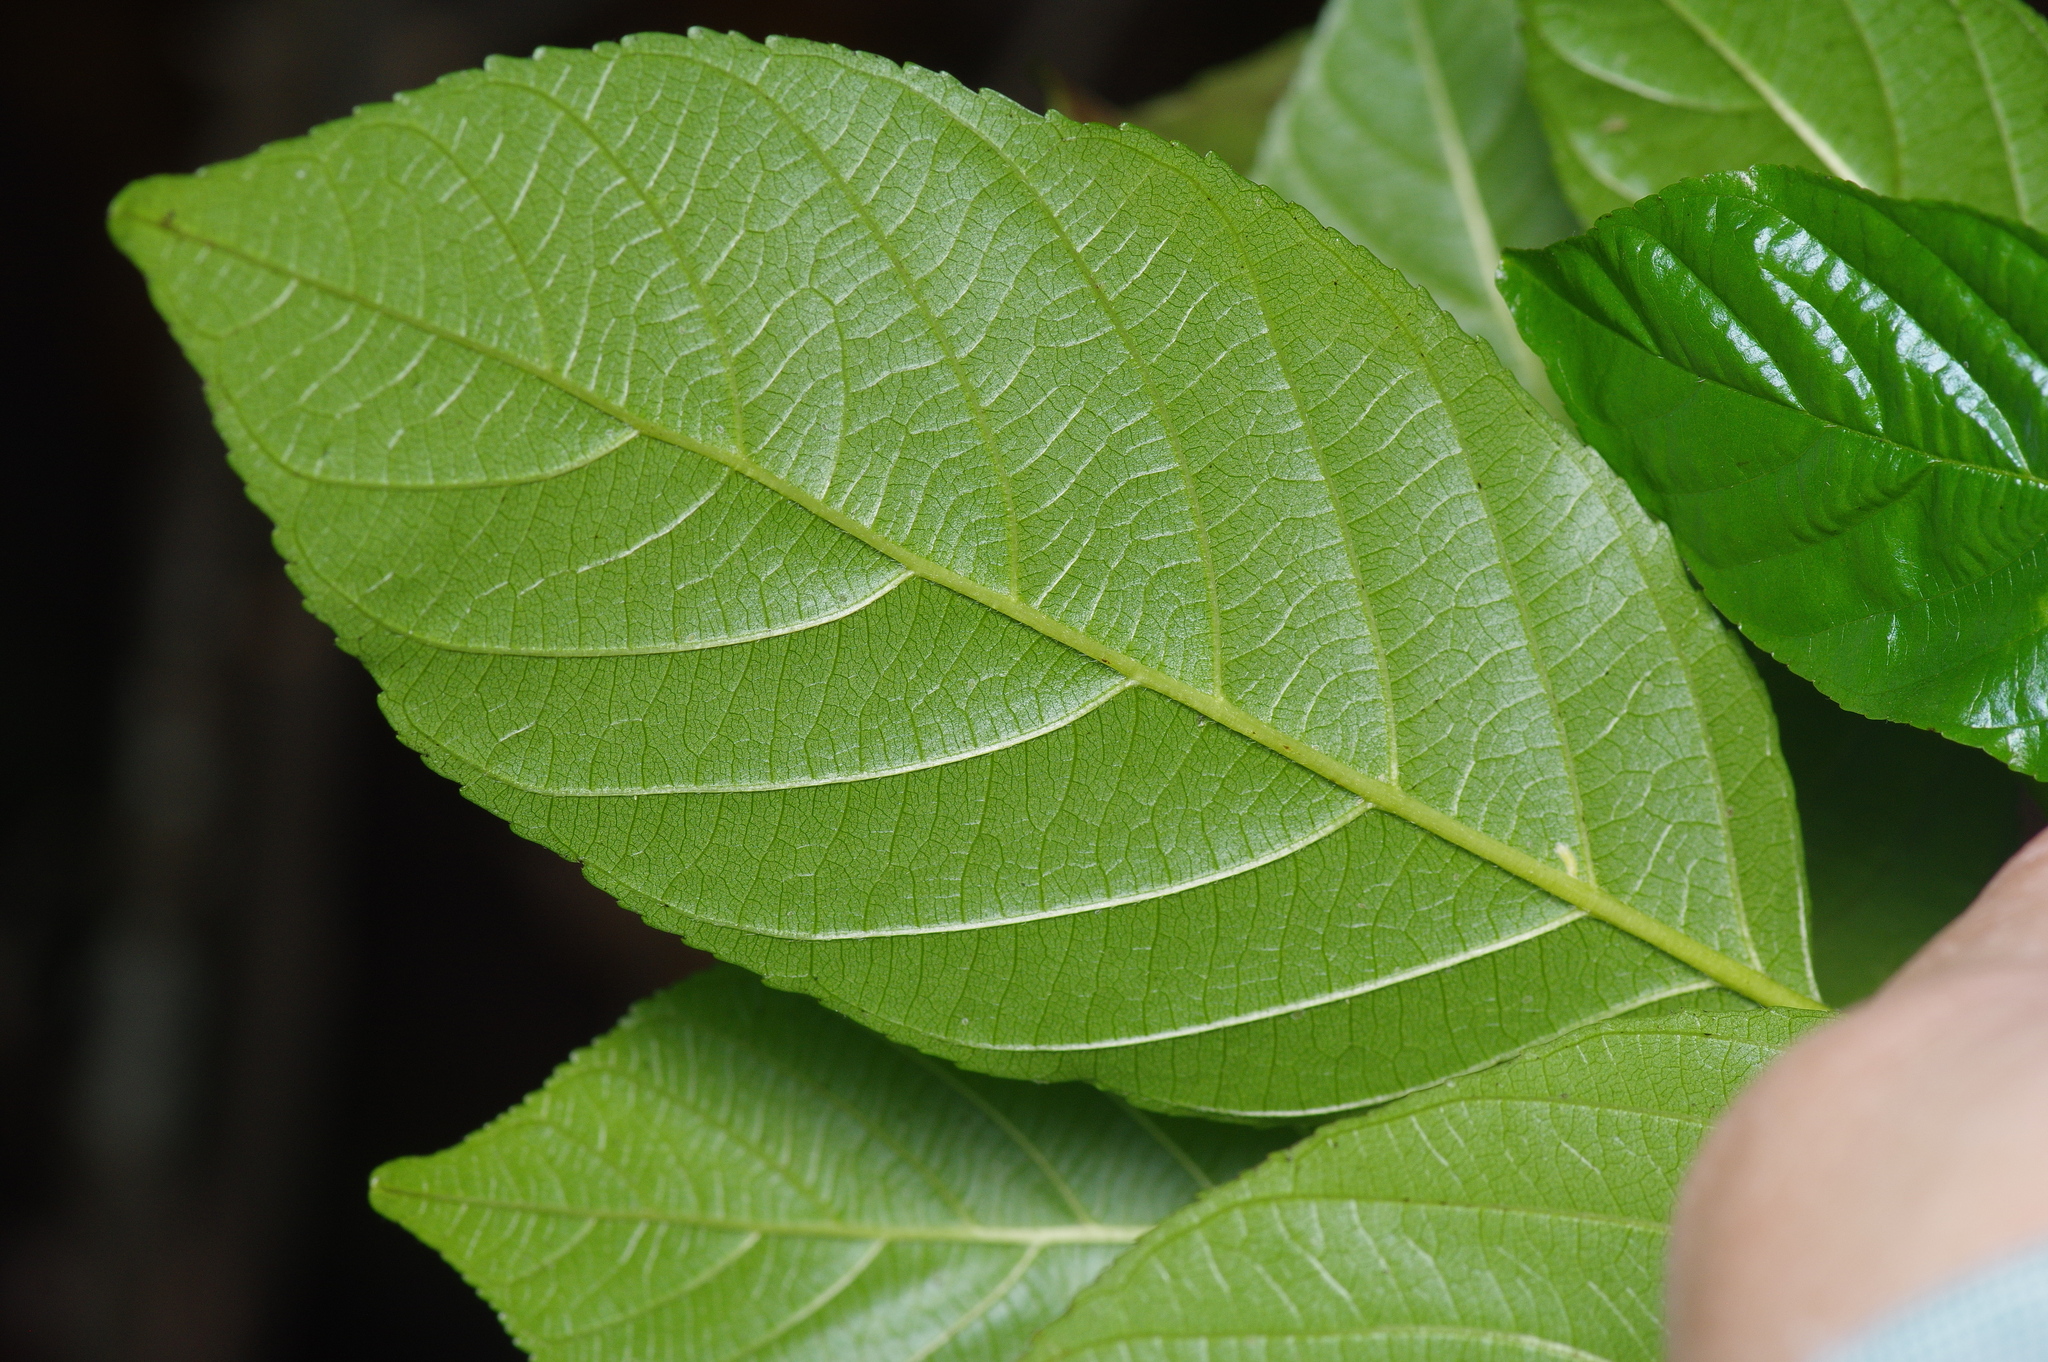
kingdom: Plantae
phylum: Tracheophyta
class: Magnoliopsida
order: Rosales
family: Rhamnaceae
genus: Frangula
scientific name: Frangula caroliniana
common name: Carolina buckthorn
